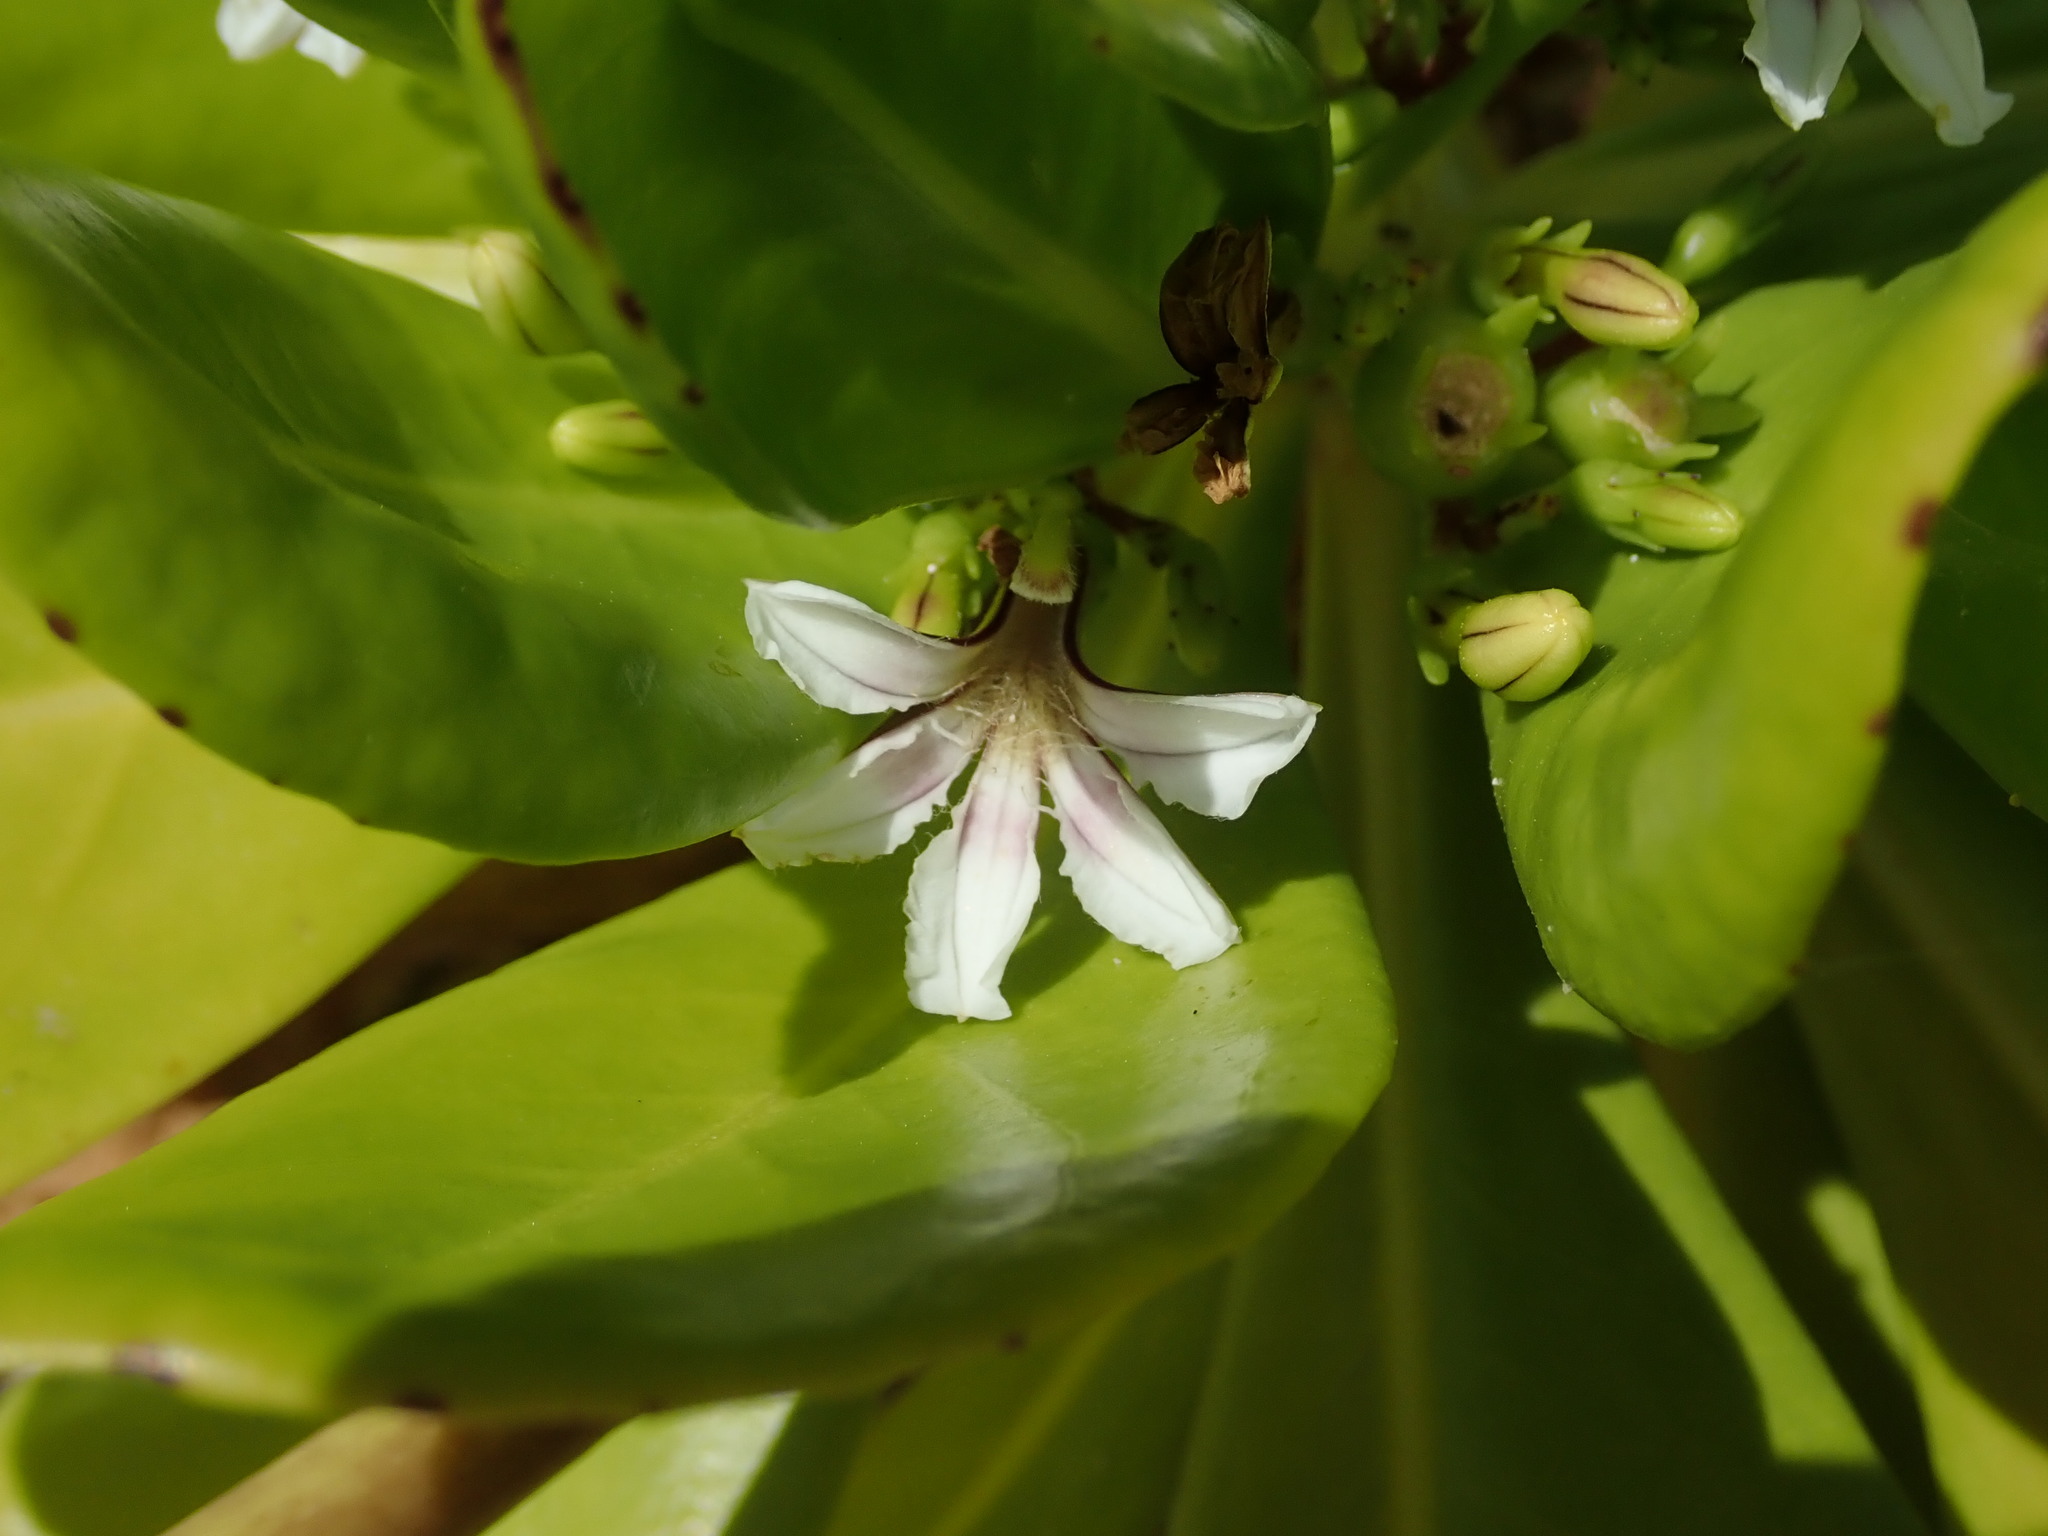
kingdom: Plantae
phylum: Tracheophyta
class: Magnoliopsida
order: Asterales
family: Goodeniaceae
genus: Scaevola
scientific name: Scaevola taccada
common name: Sea lettucetree
